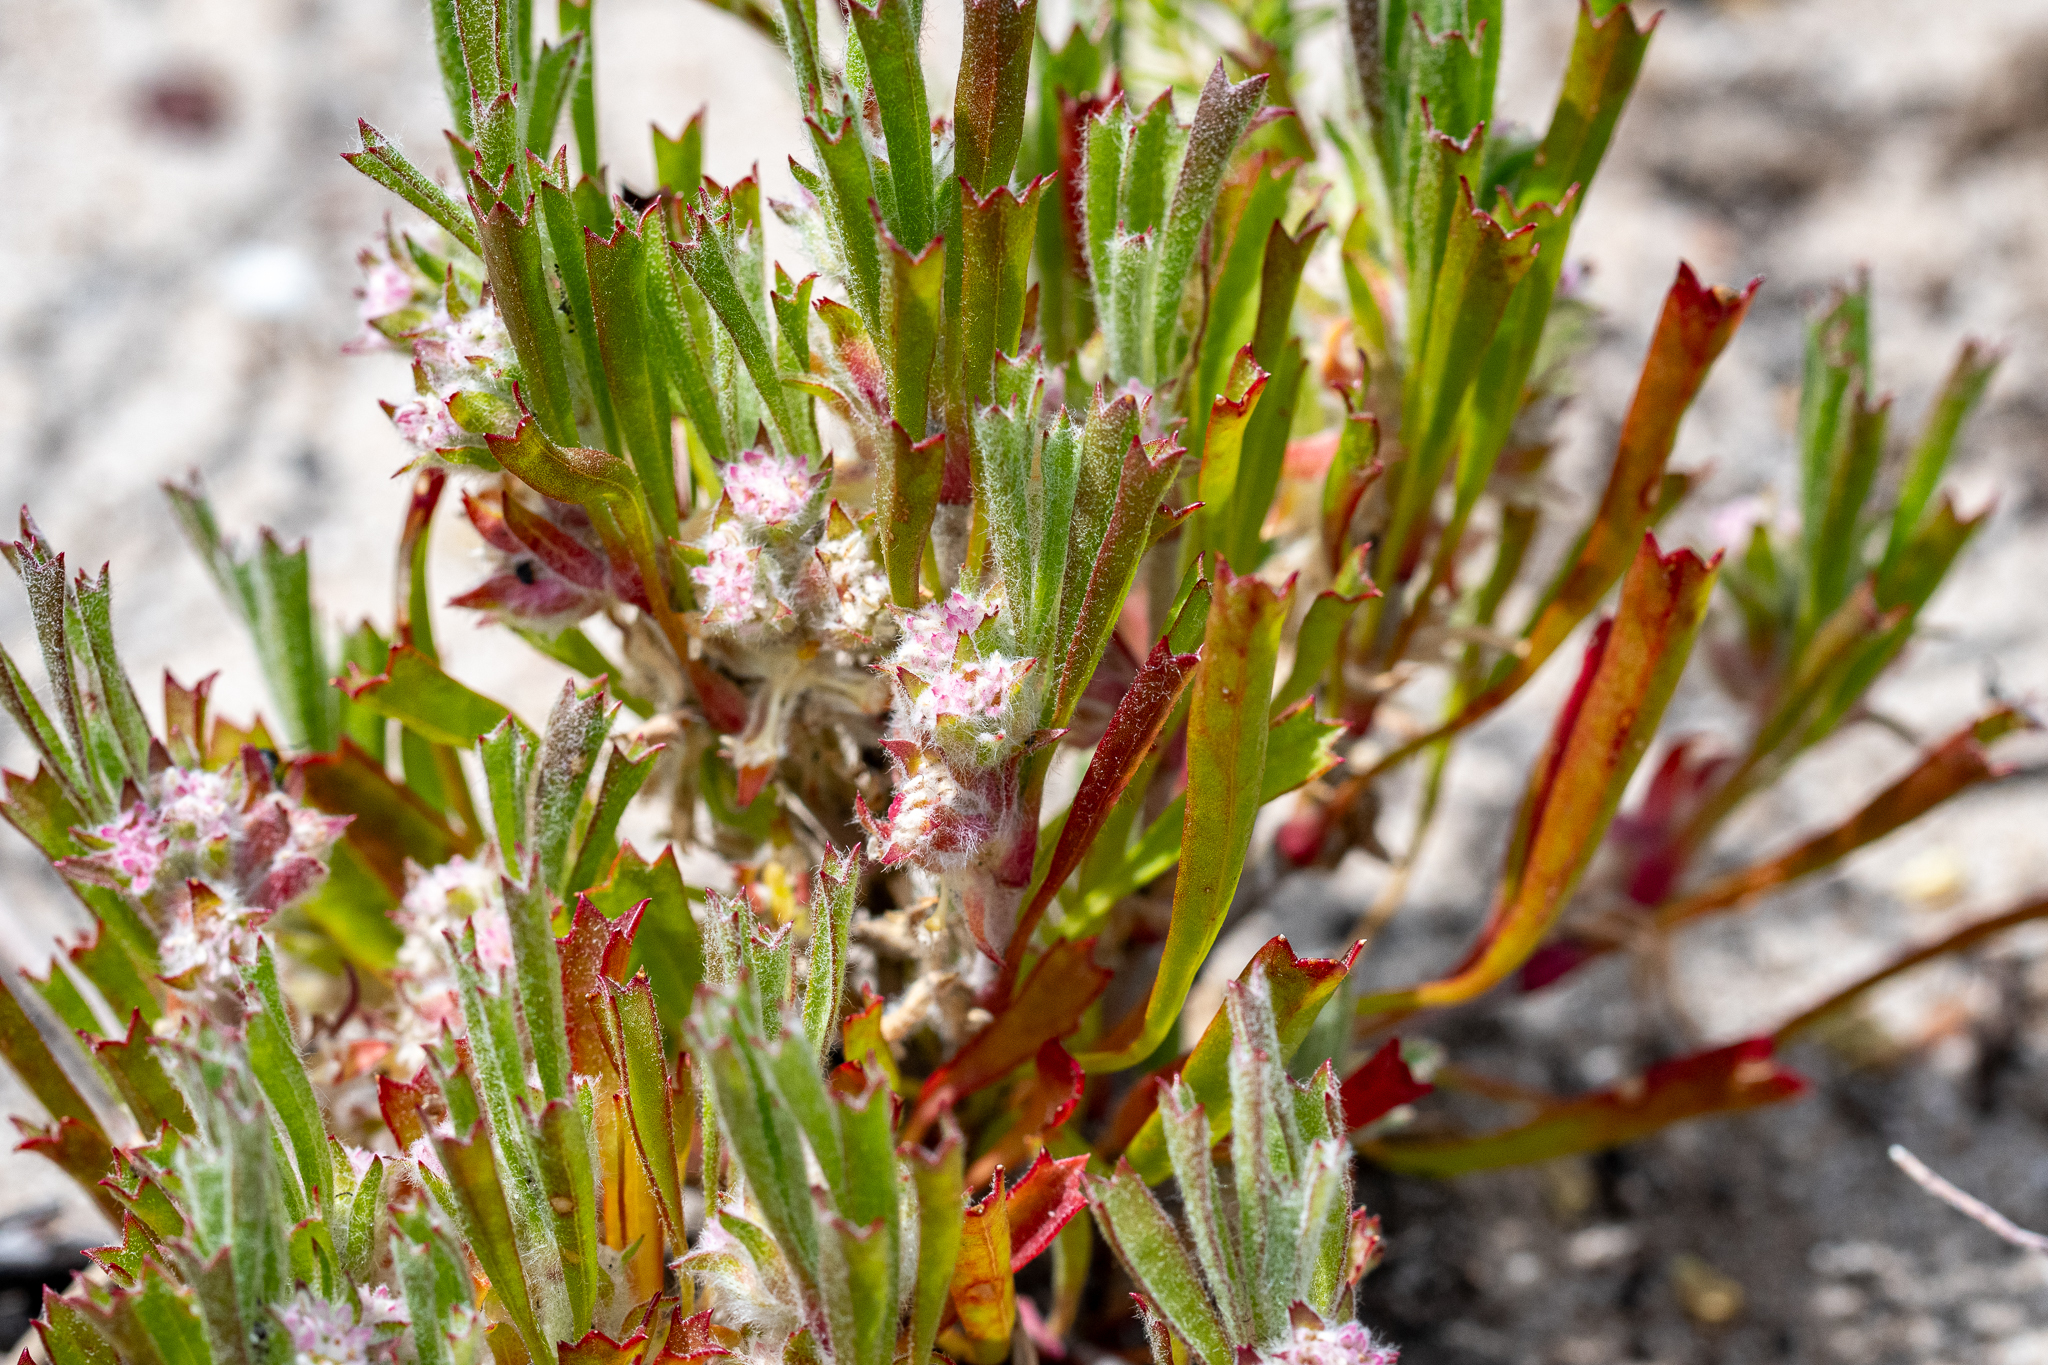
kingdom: Plantae
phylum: Tracheophyta
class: Magnoliopsida
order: Apiales
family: Apiaceae
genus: Centella
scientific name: Centella tridentata
